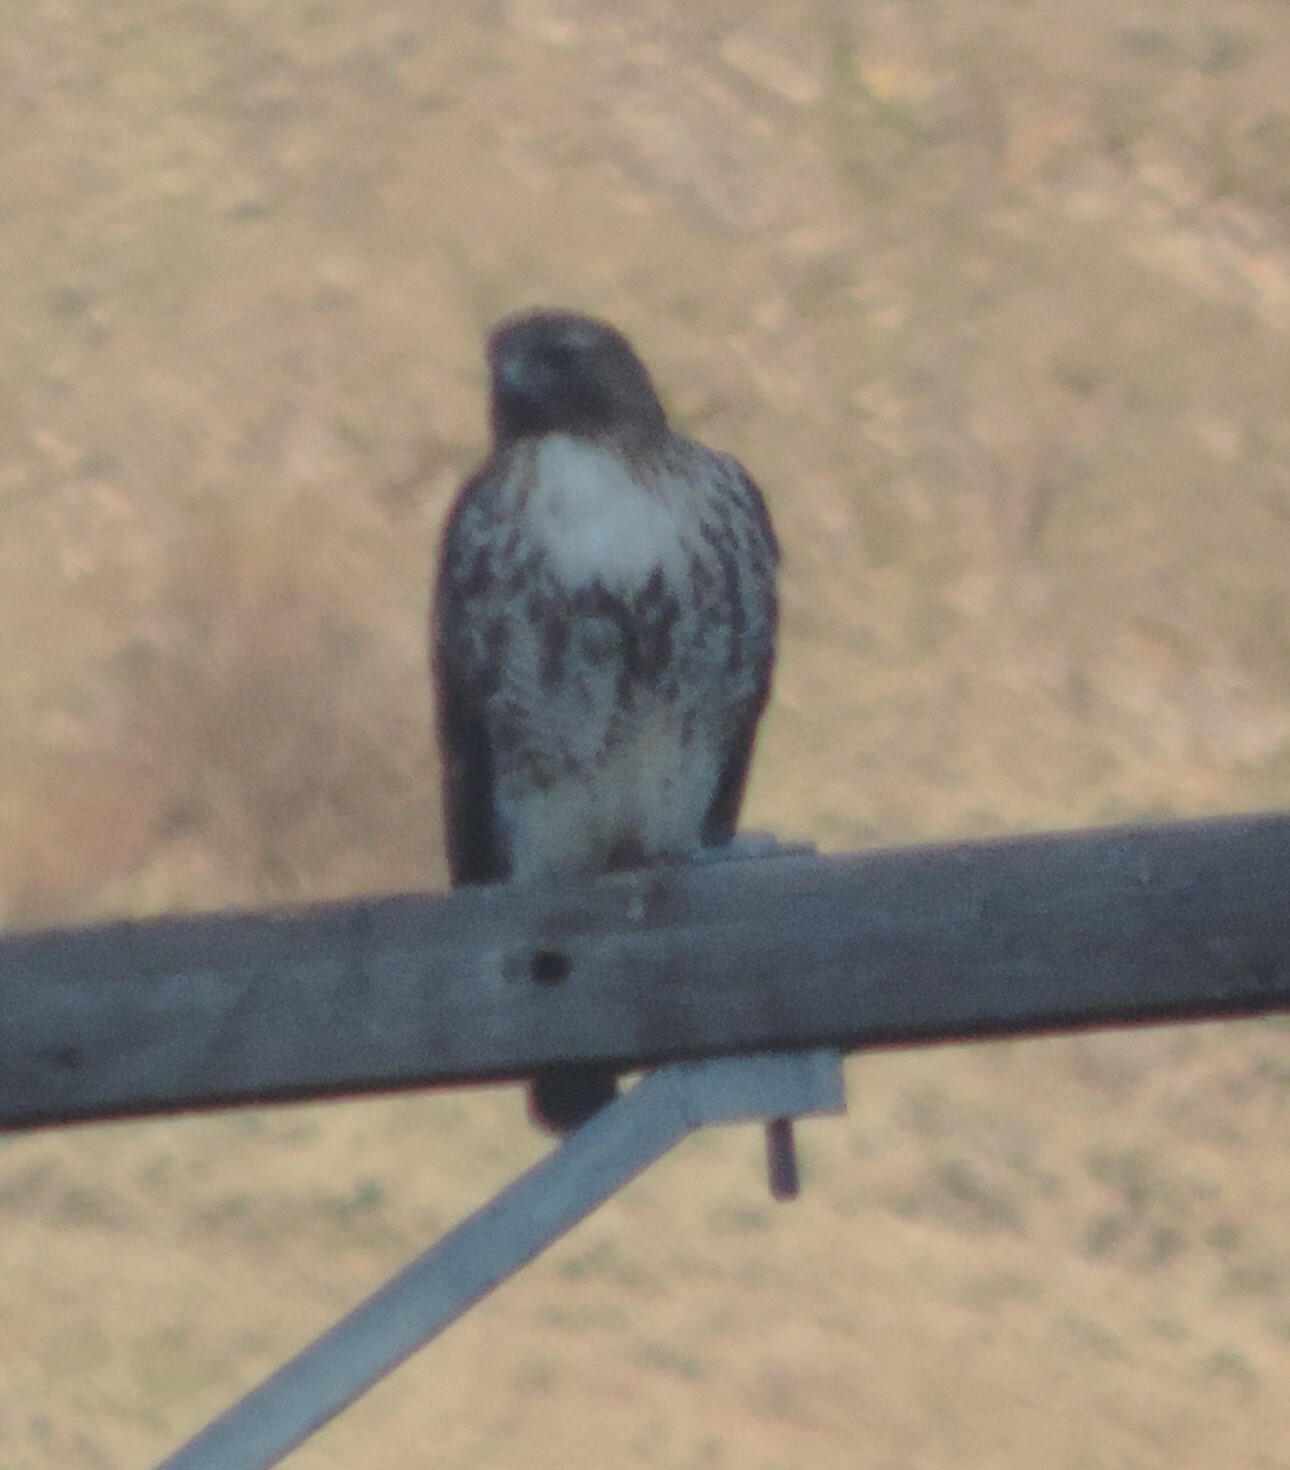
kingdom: Animalia
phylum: Chordata
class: Aves
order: Accipitriformes
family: Accipitridae
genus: Buteo
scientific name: Buteo jamaicensis
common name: Red-tailed hawk
